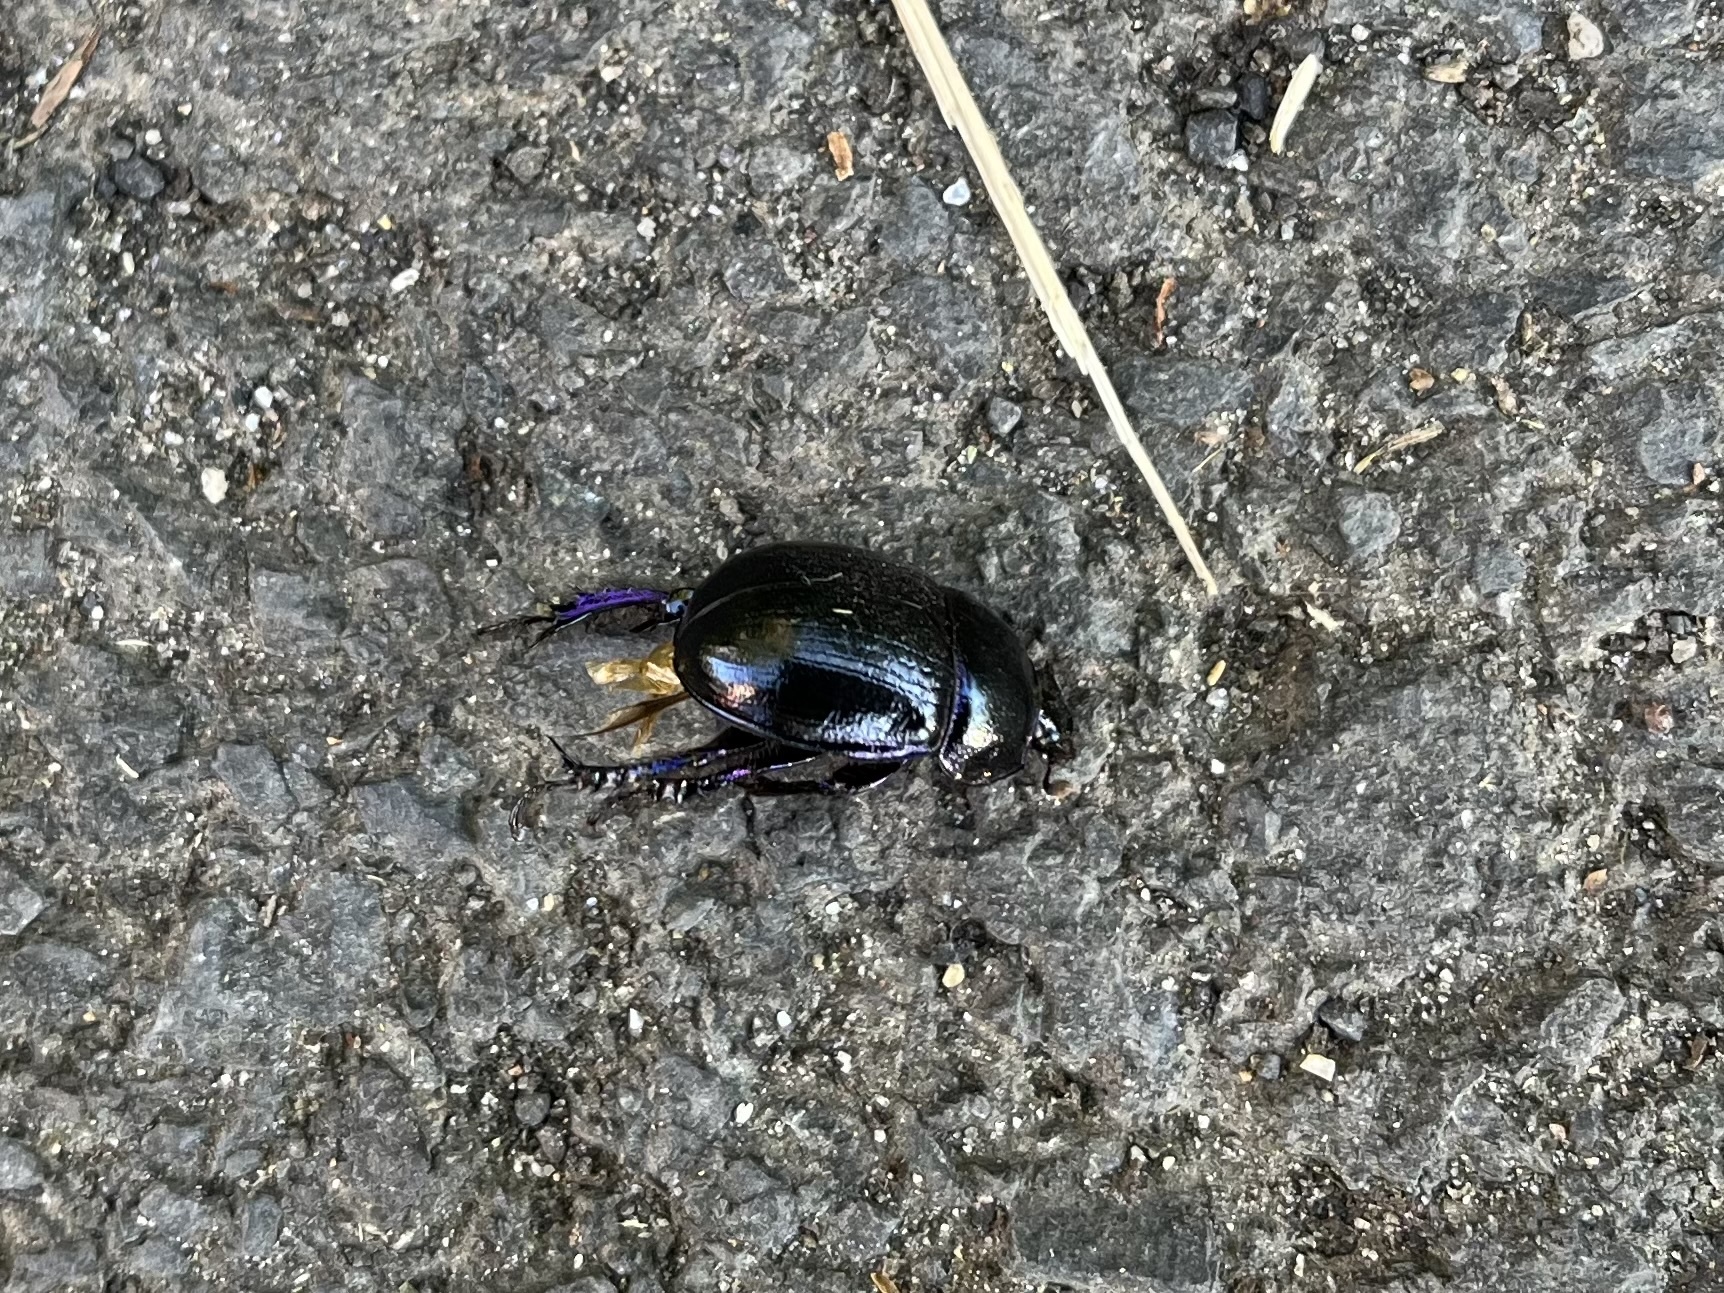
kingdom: Animalia
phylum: Arthropoda
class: Insecta
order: Coleoptera
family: Geotrupidae
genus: Anoplotrupes
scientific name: Anoplotrupes stercorosus
